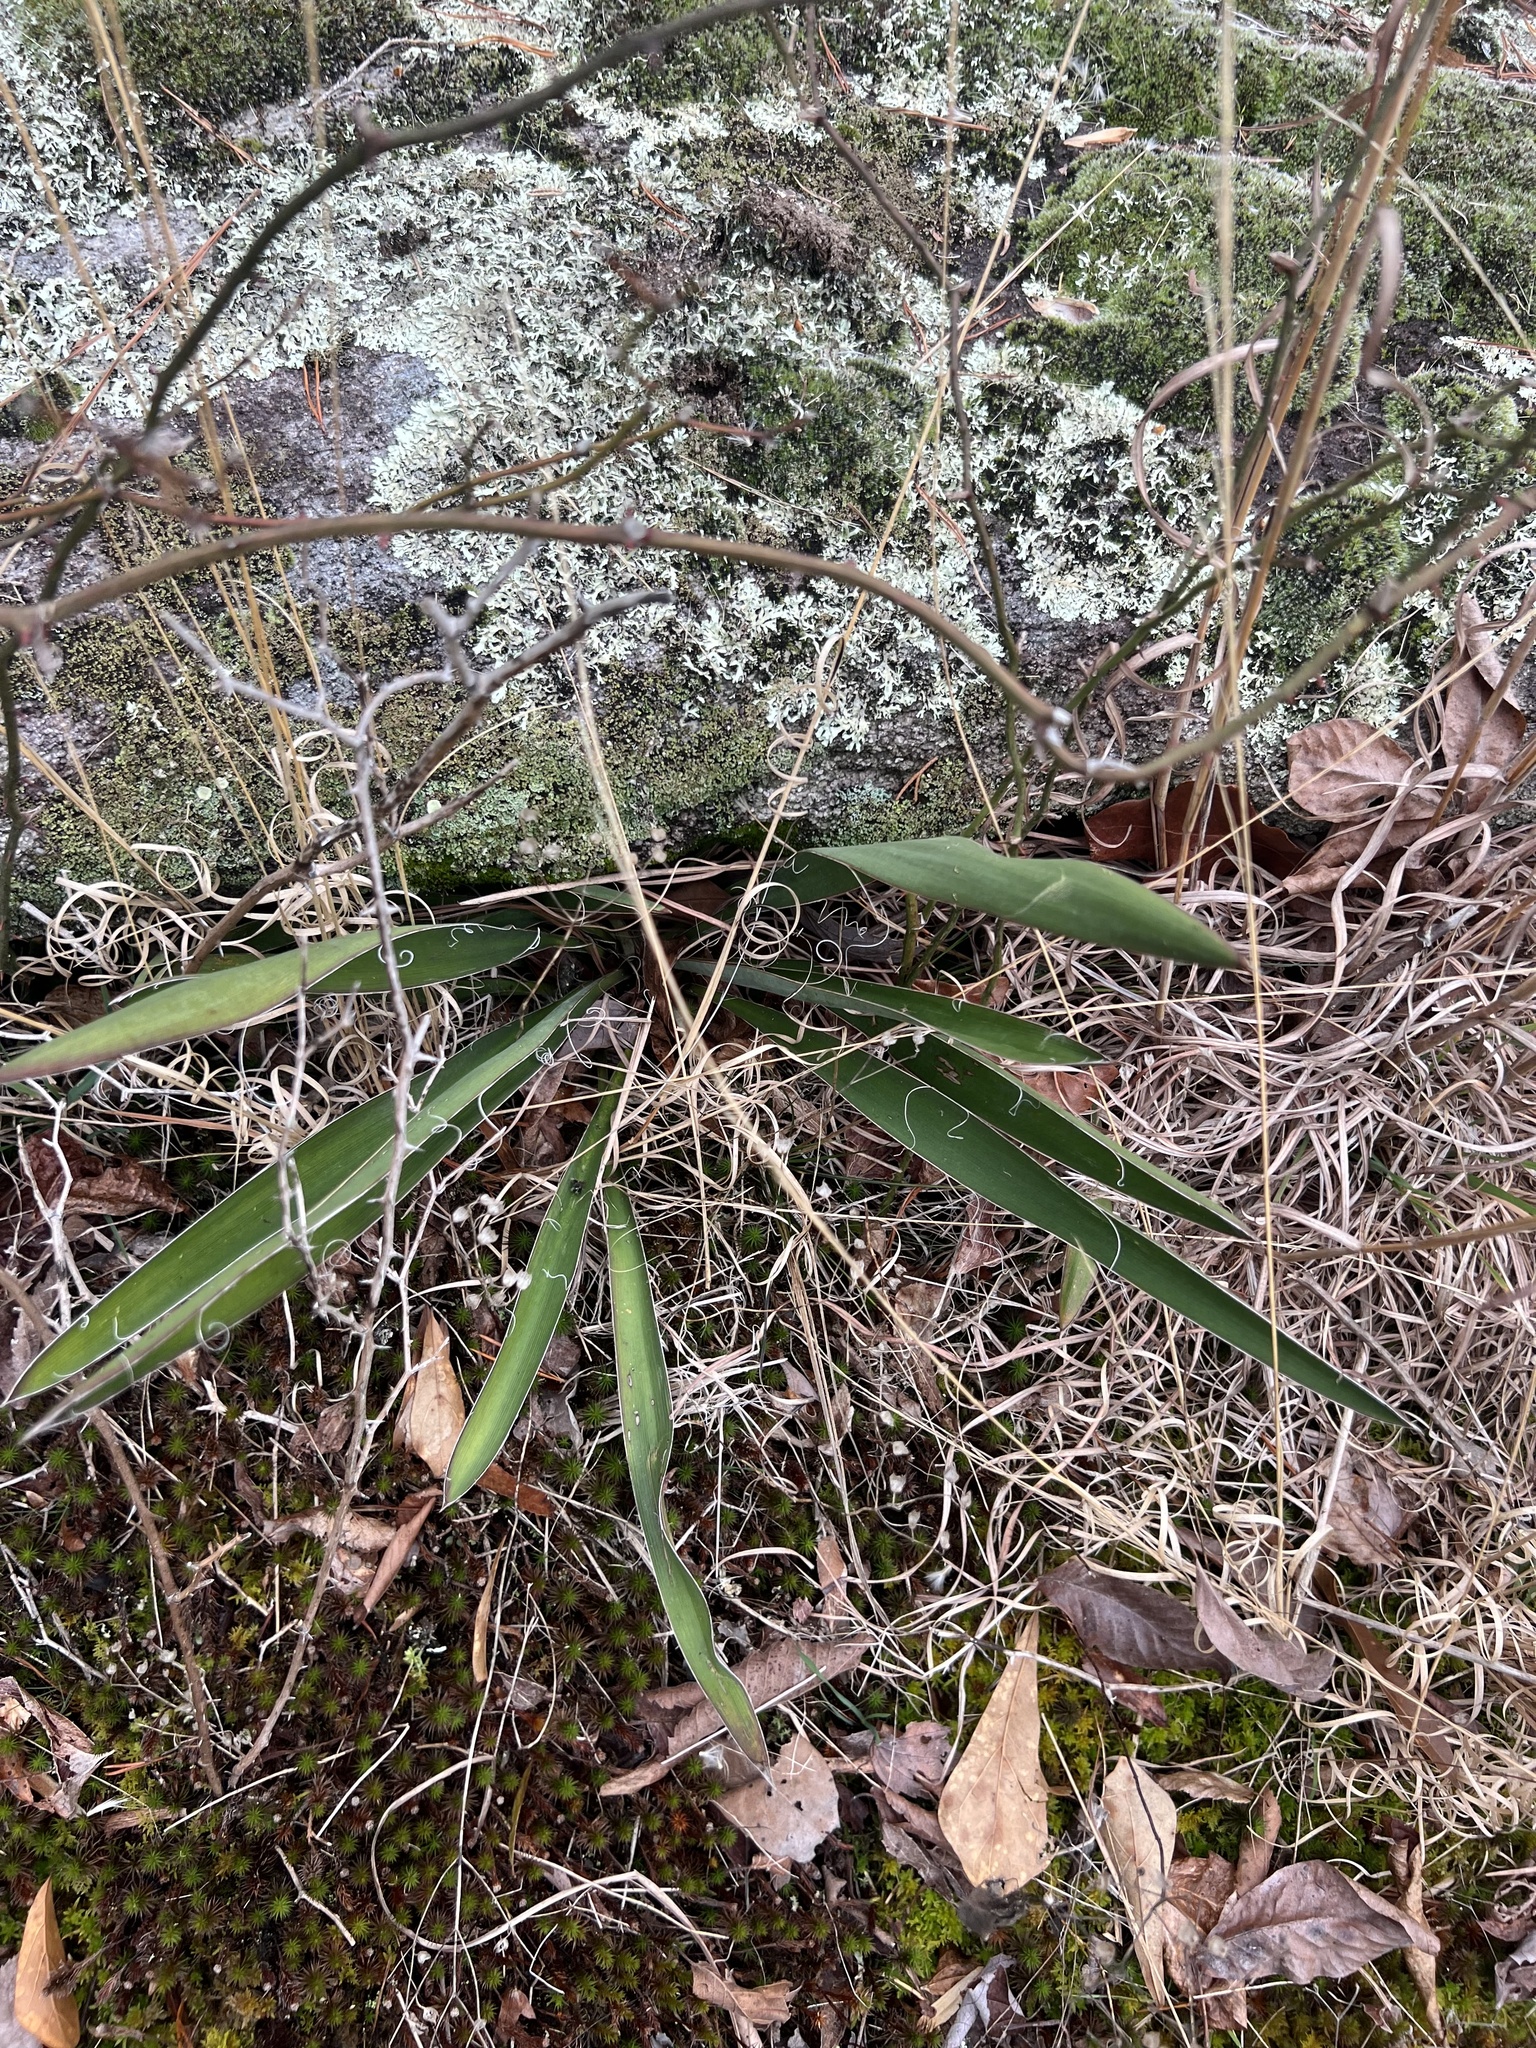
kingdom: Plantae
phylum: Tracheophyta
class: Liliopsida
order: Asparagales
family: Asparagaceae
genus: Yucca
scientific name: Yucca filamentosa
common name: Adam's-needle
